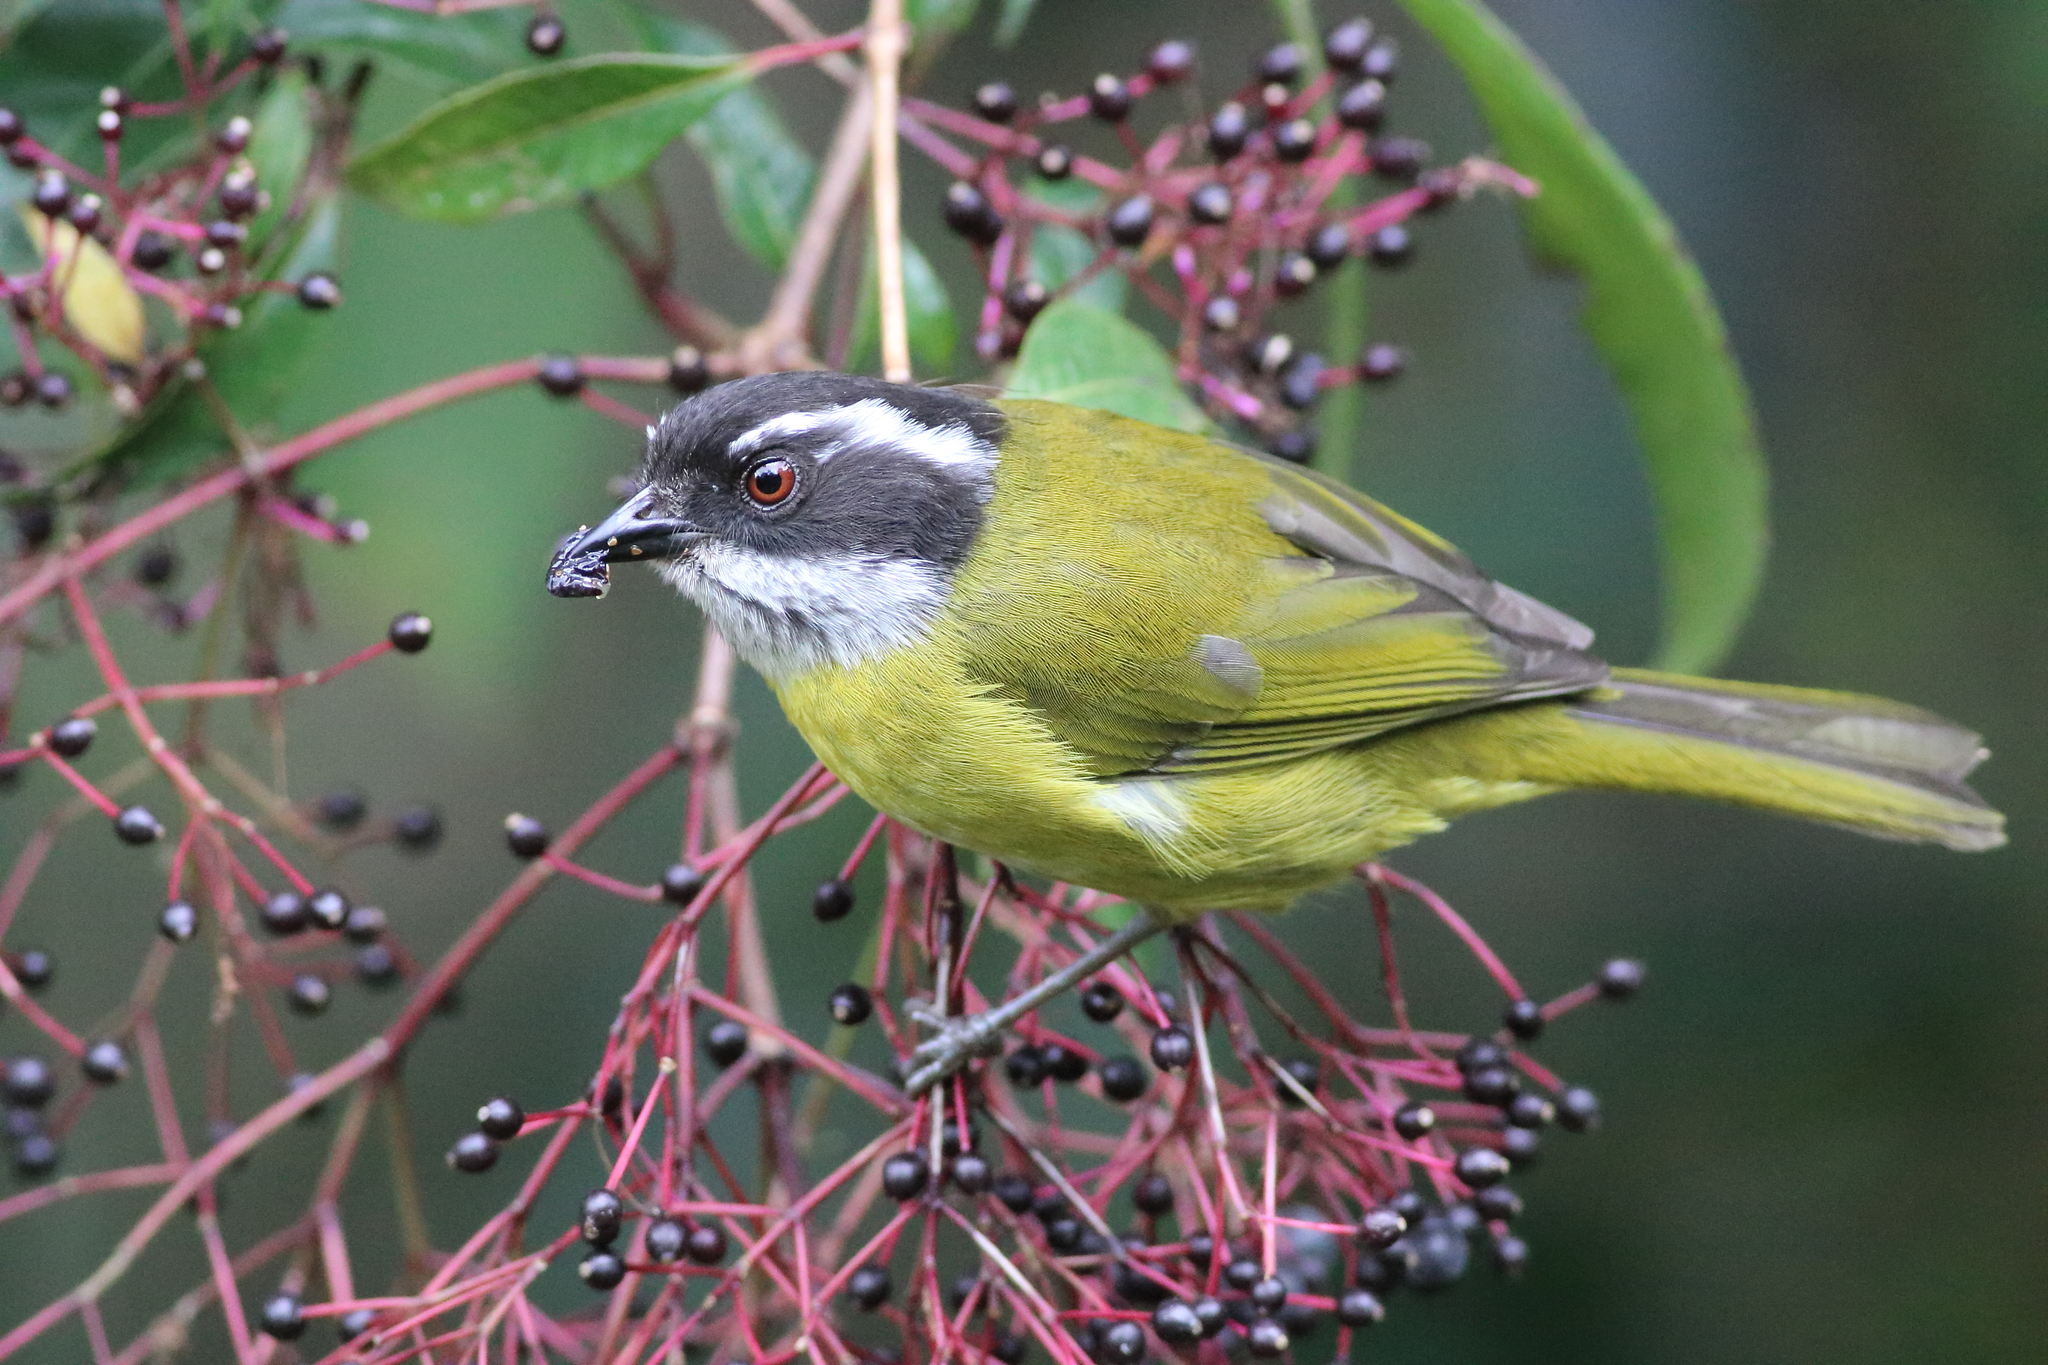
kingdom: Animalia
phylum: Chordata
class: Aves
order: Passeriformes
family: Passerellidae
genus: Chlorospingus
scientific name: Chlorospingus pileatus
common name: Sooty-capped bush-tanager
